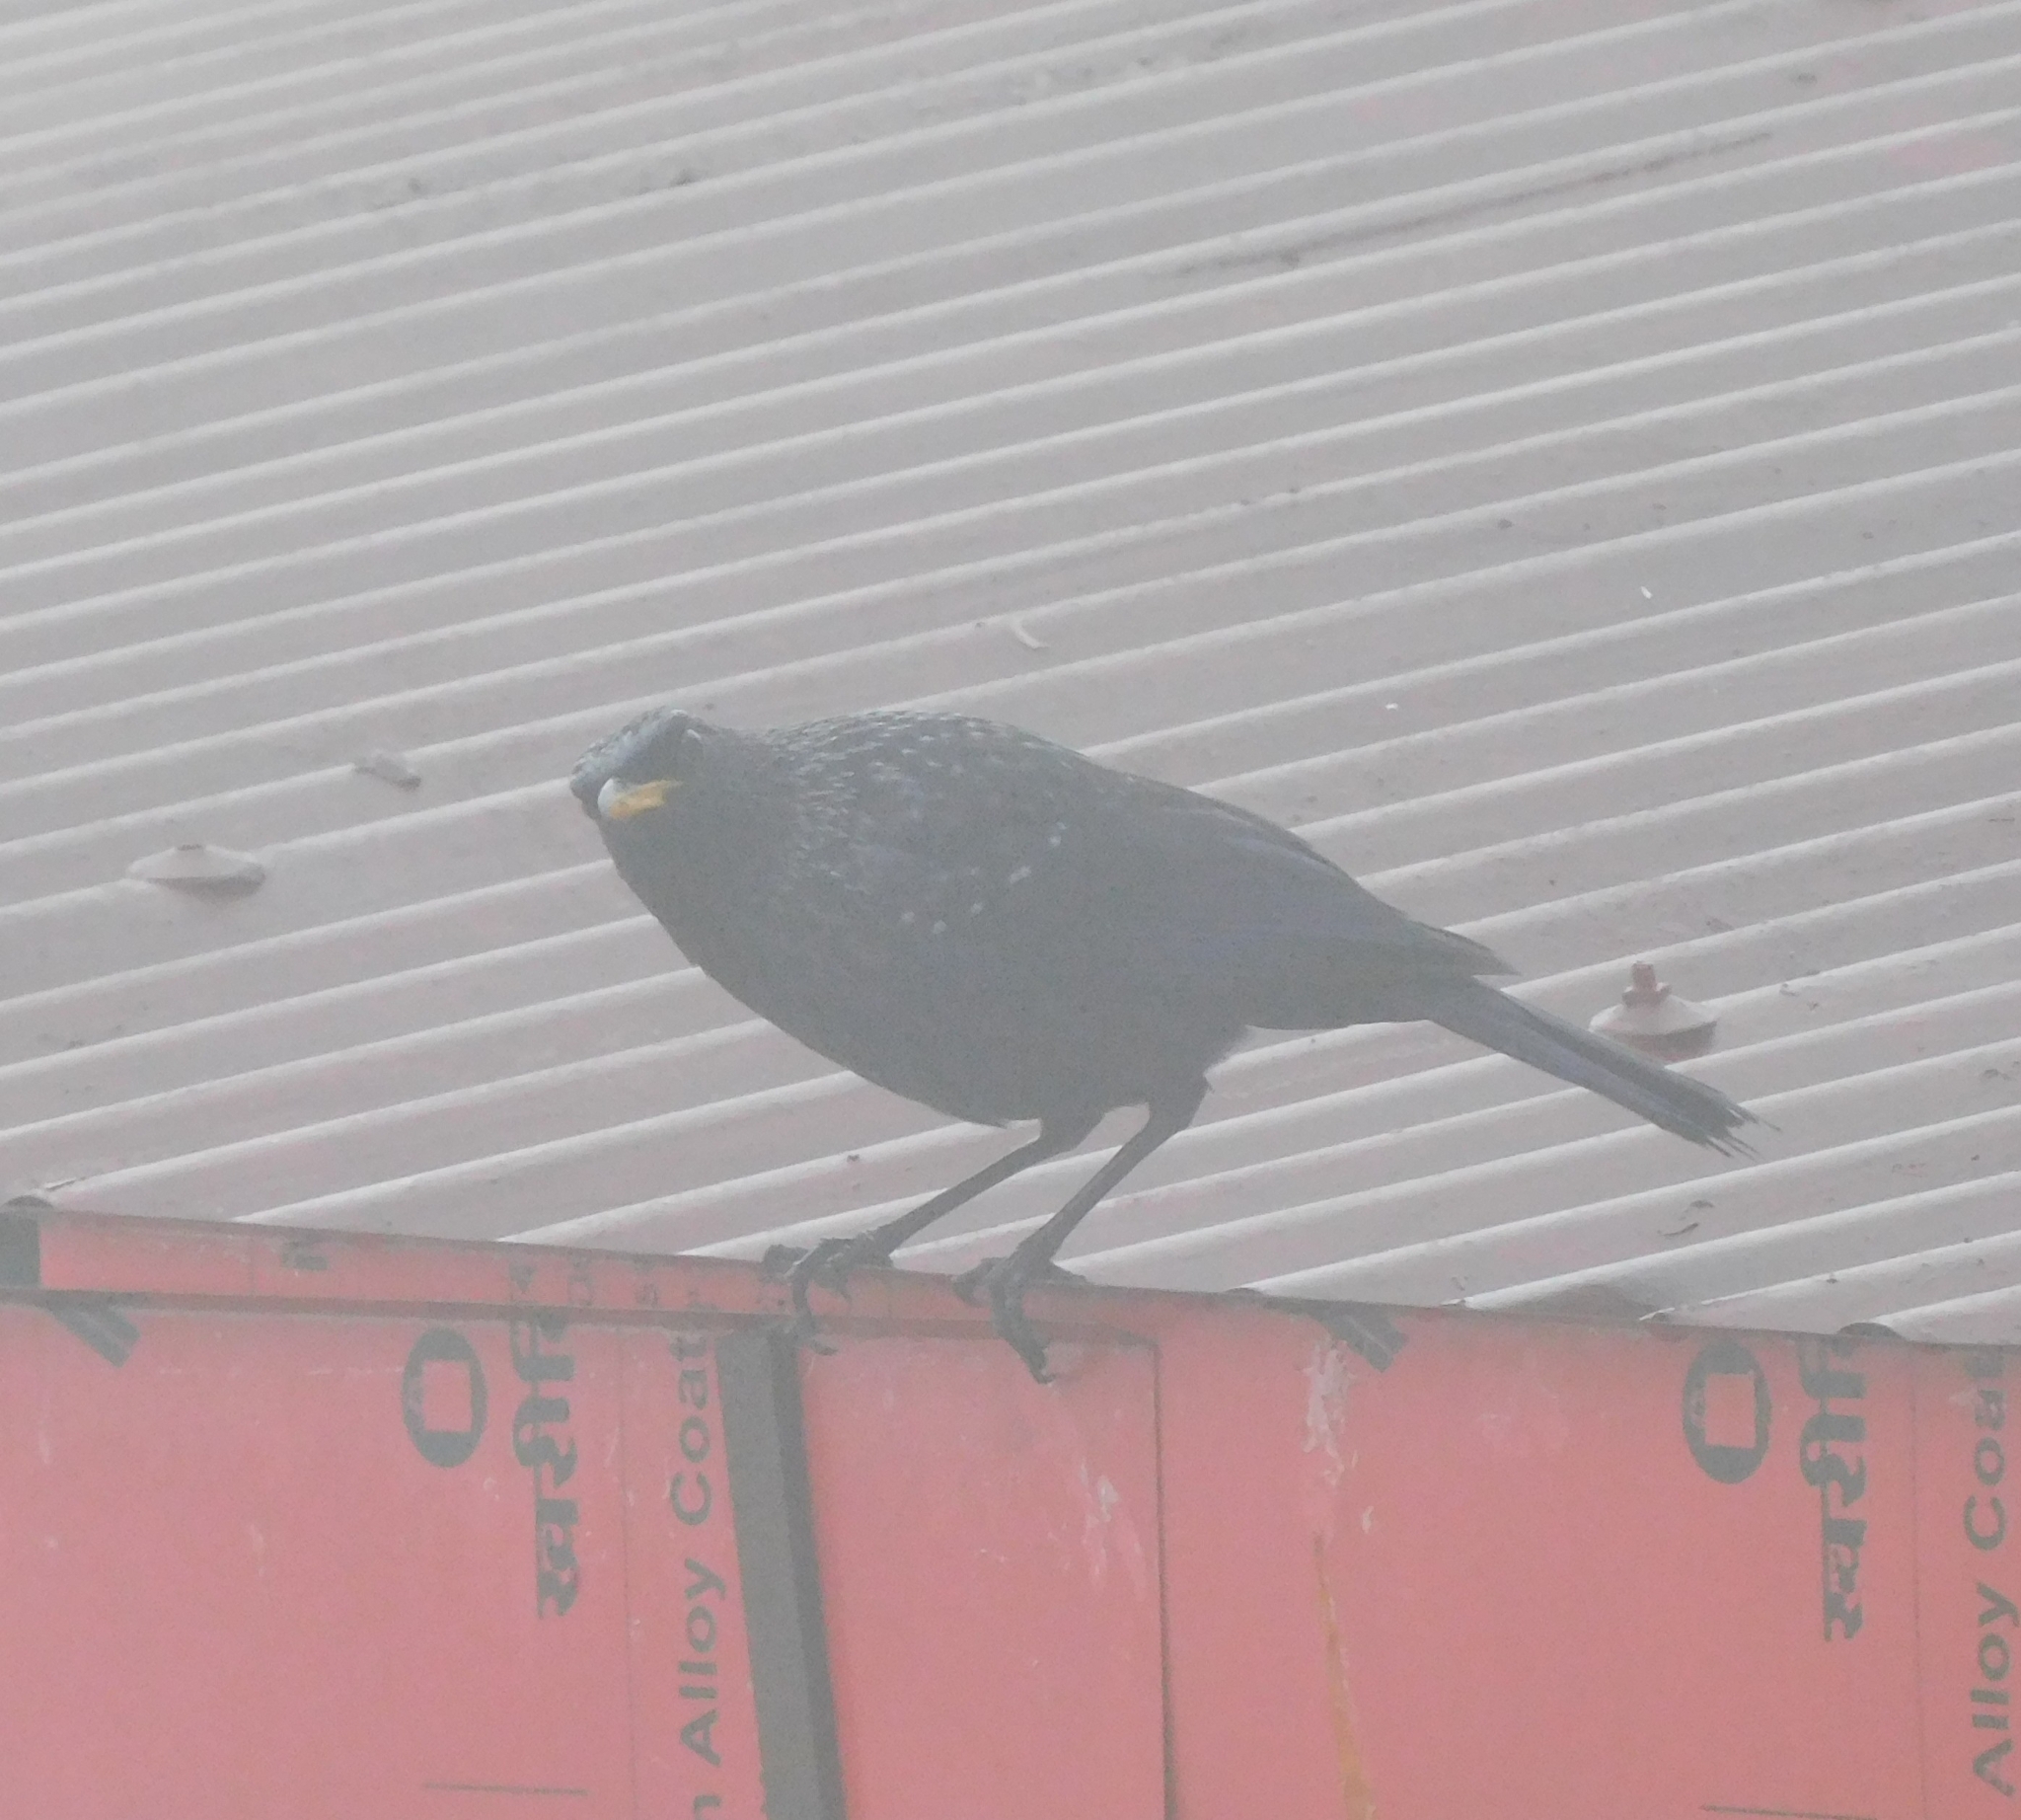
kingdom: Animalia
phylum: Chordata
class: Aves
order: Passeriformes
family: Muscicapidae
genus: Myophonus
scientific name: Myophonus caeruleus
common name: Blue whistling-thrush
